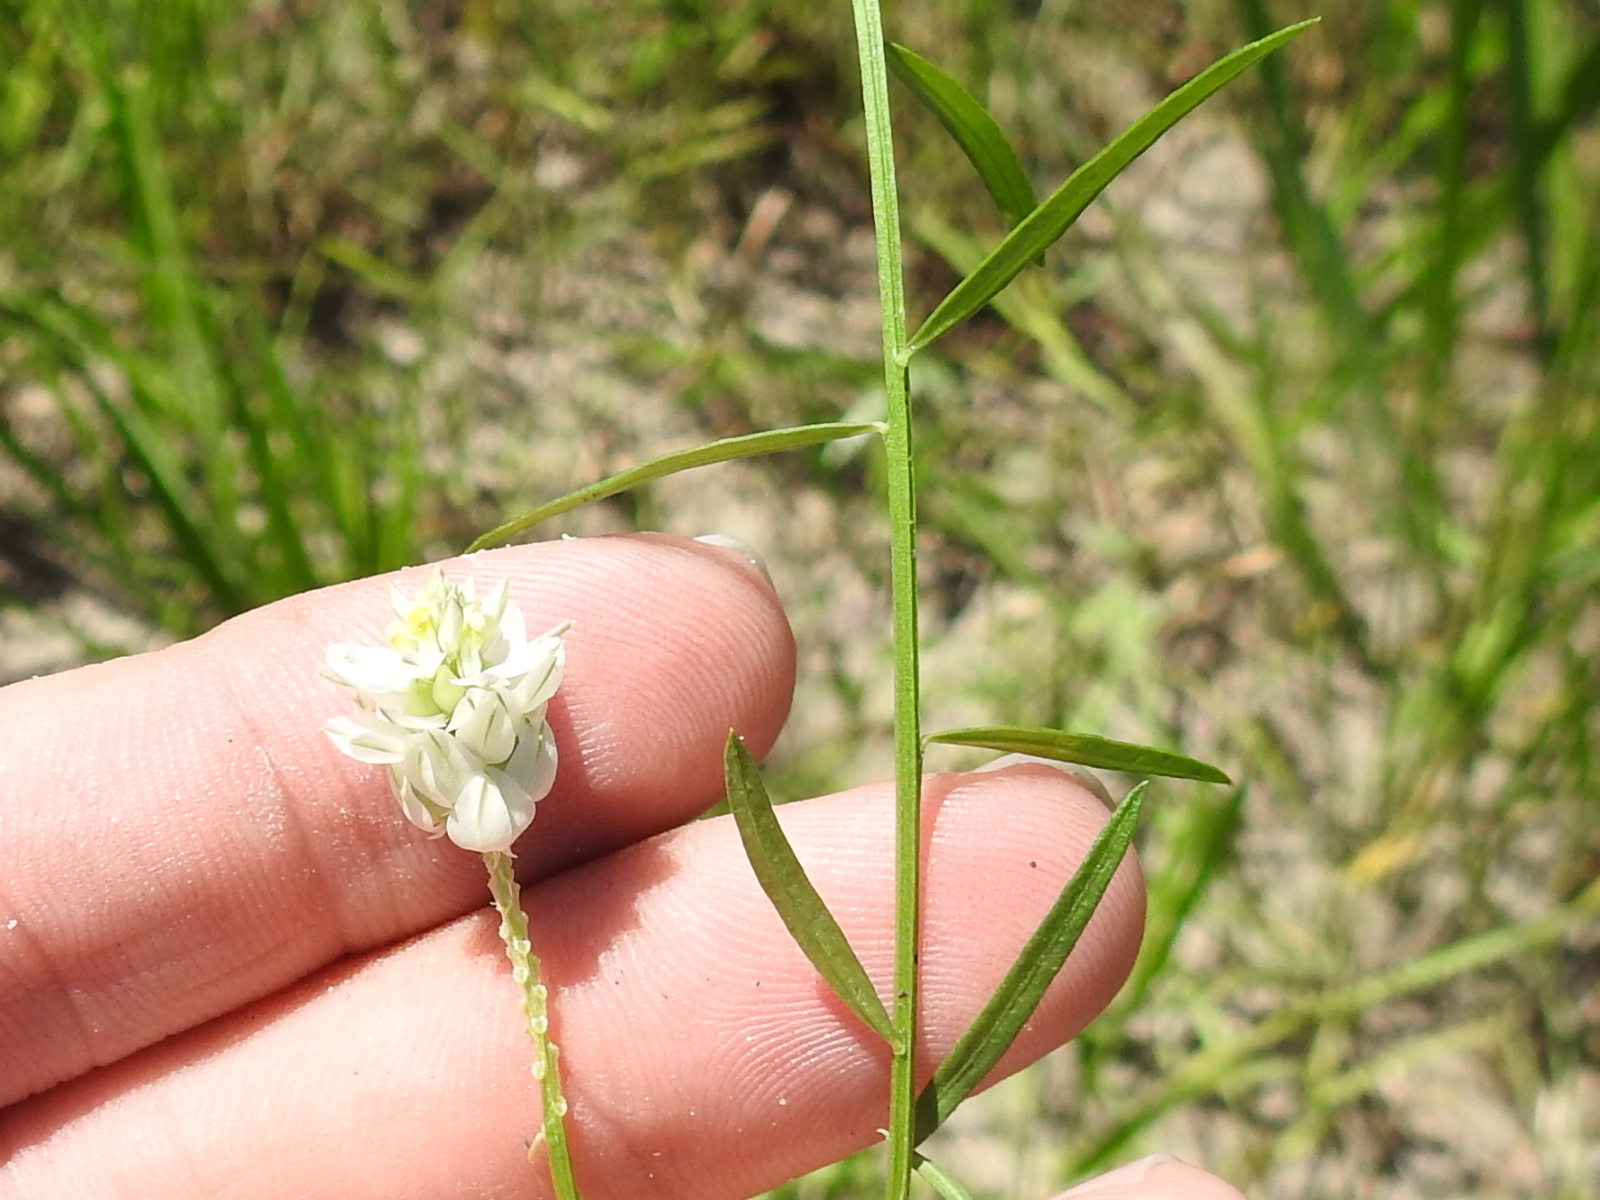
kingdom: Plantae
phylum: Tracheophyta
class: Magnoliopsida
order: Fabales
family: Polygalaceae
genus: Polygala
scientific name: Polygala sanguinea
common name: Blood milkwort
